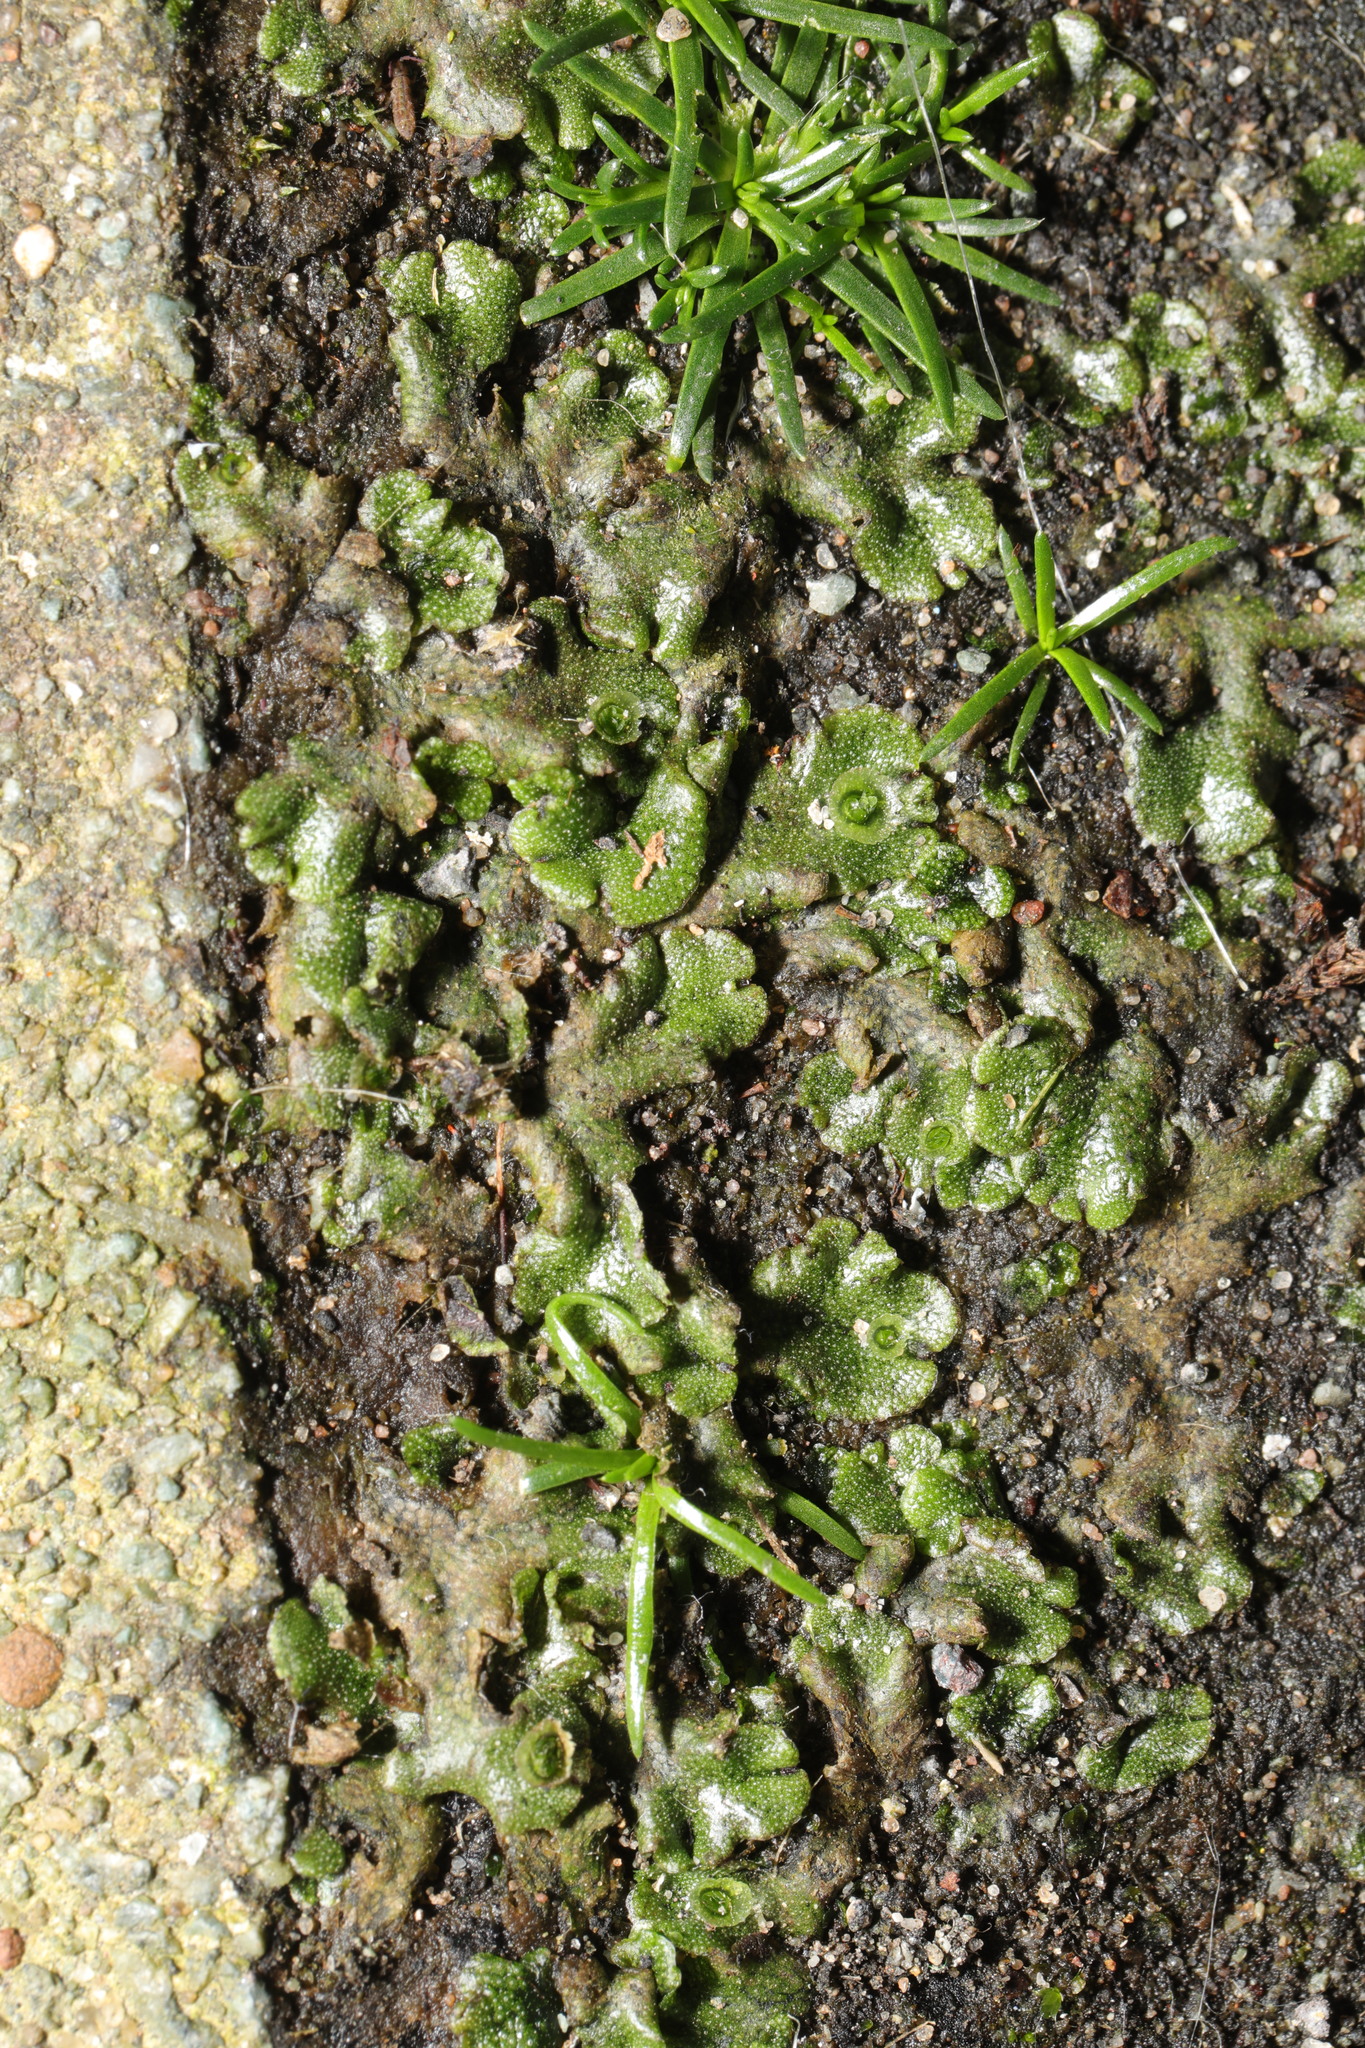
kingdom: Plantae
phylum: Marchantiophyta
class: Marchantiopsida
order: Marchantiales
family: Marchantiaceae
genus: Marchantia
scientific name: Marchantia polymorpha
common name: Common liverwort
